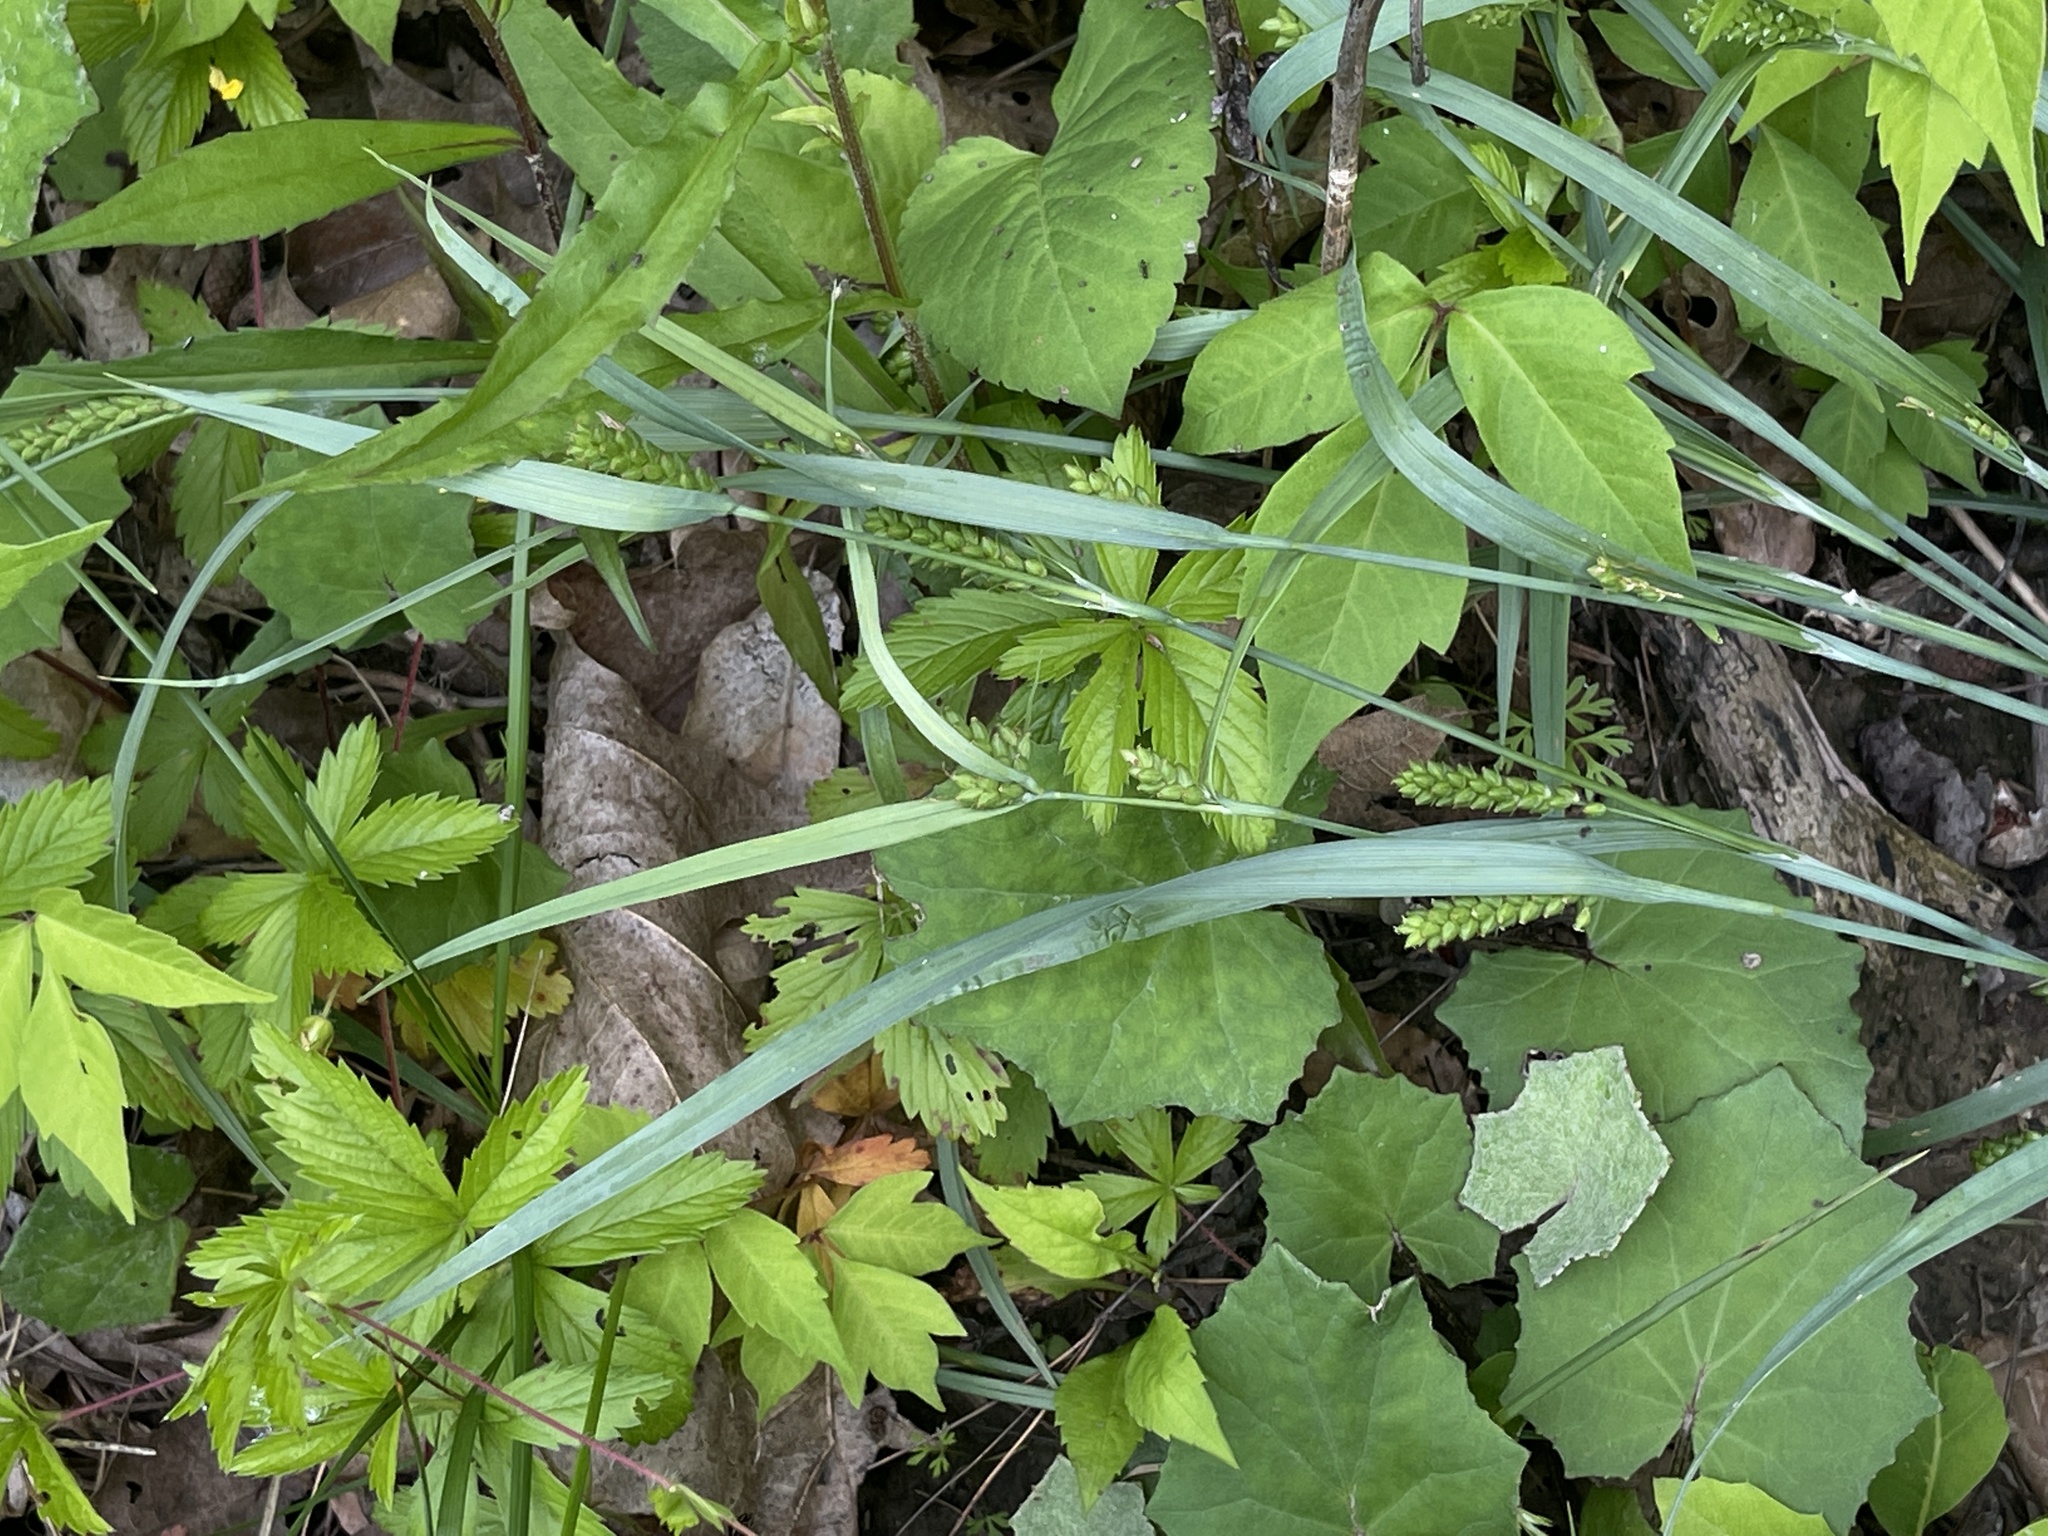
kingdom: Plantae
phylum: Tracheophyta
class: Liliopsida
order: Poales
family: Cyperaceae
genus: Carex
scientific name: Carex glaucodea
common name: Blue sedge
